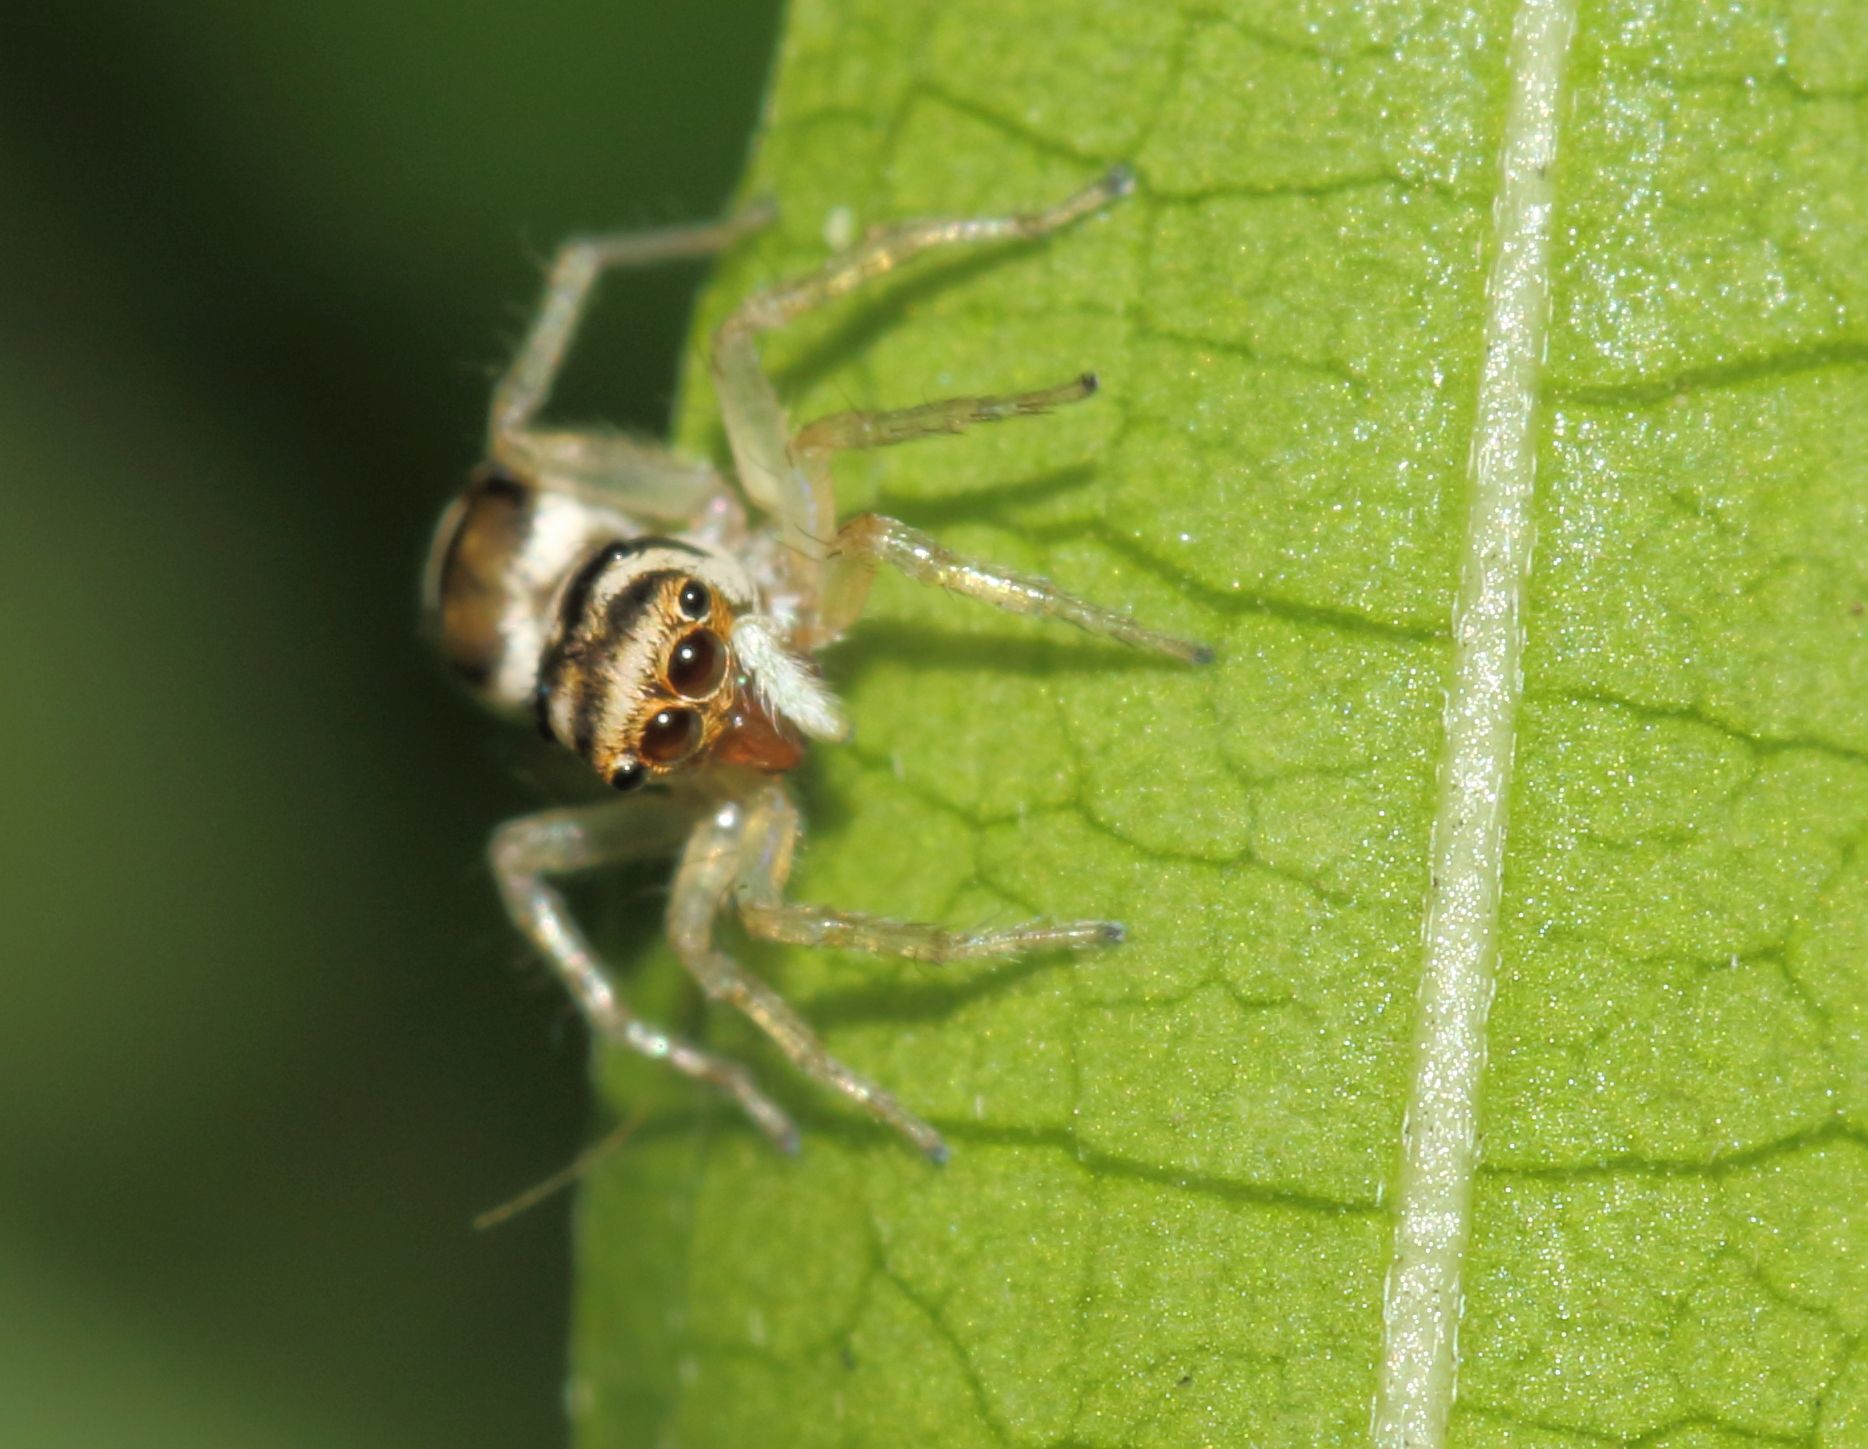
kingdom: Animalia
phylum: Arthropoda
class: Arachnida
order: Araneae
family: Salticidae
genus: Phintella
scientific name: Phintella aequipes
